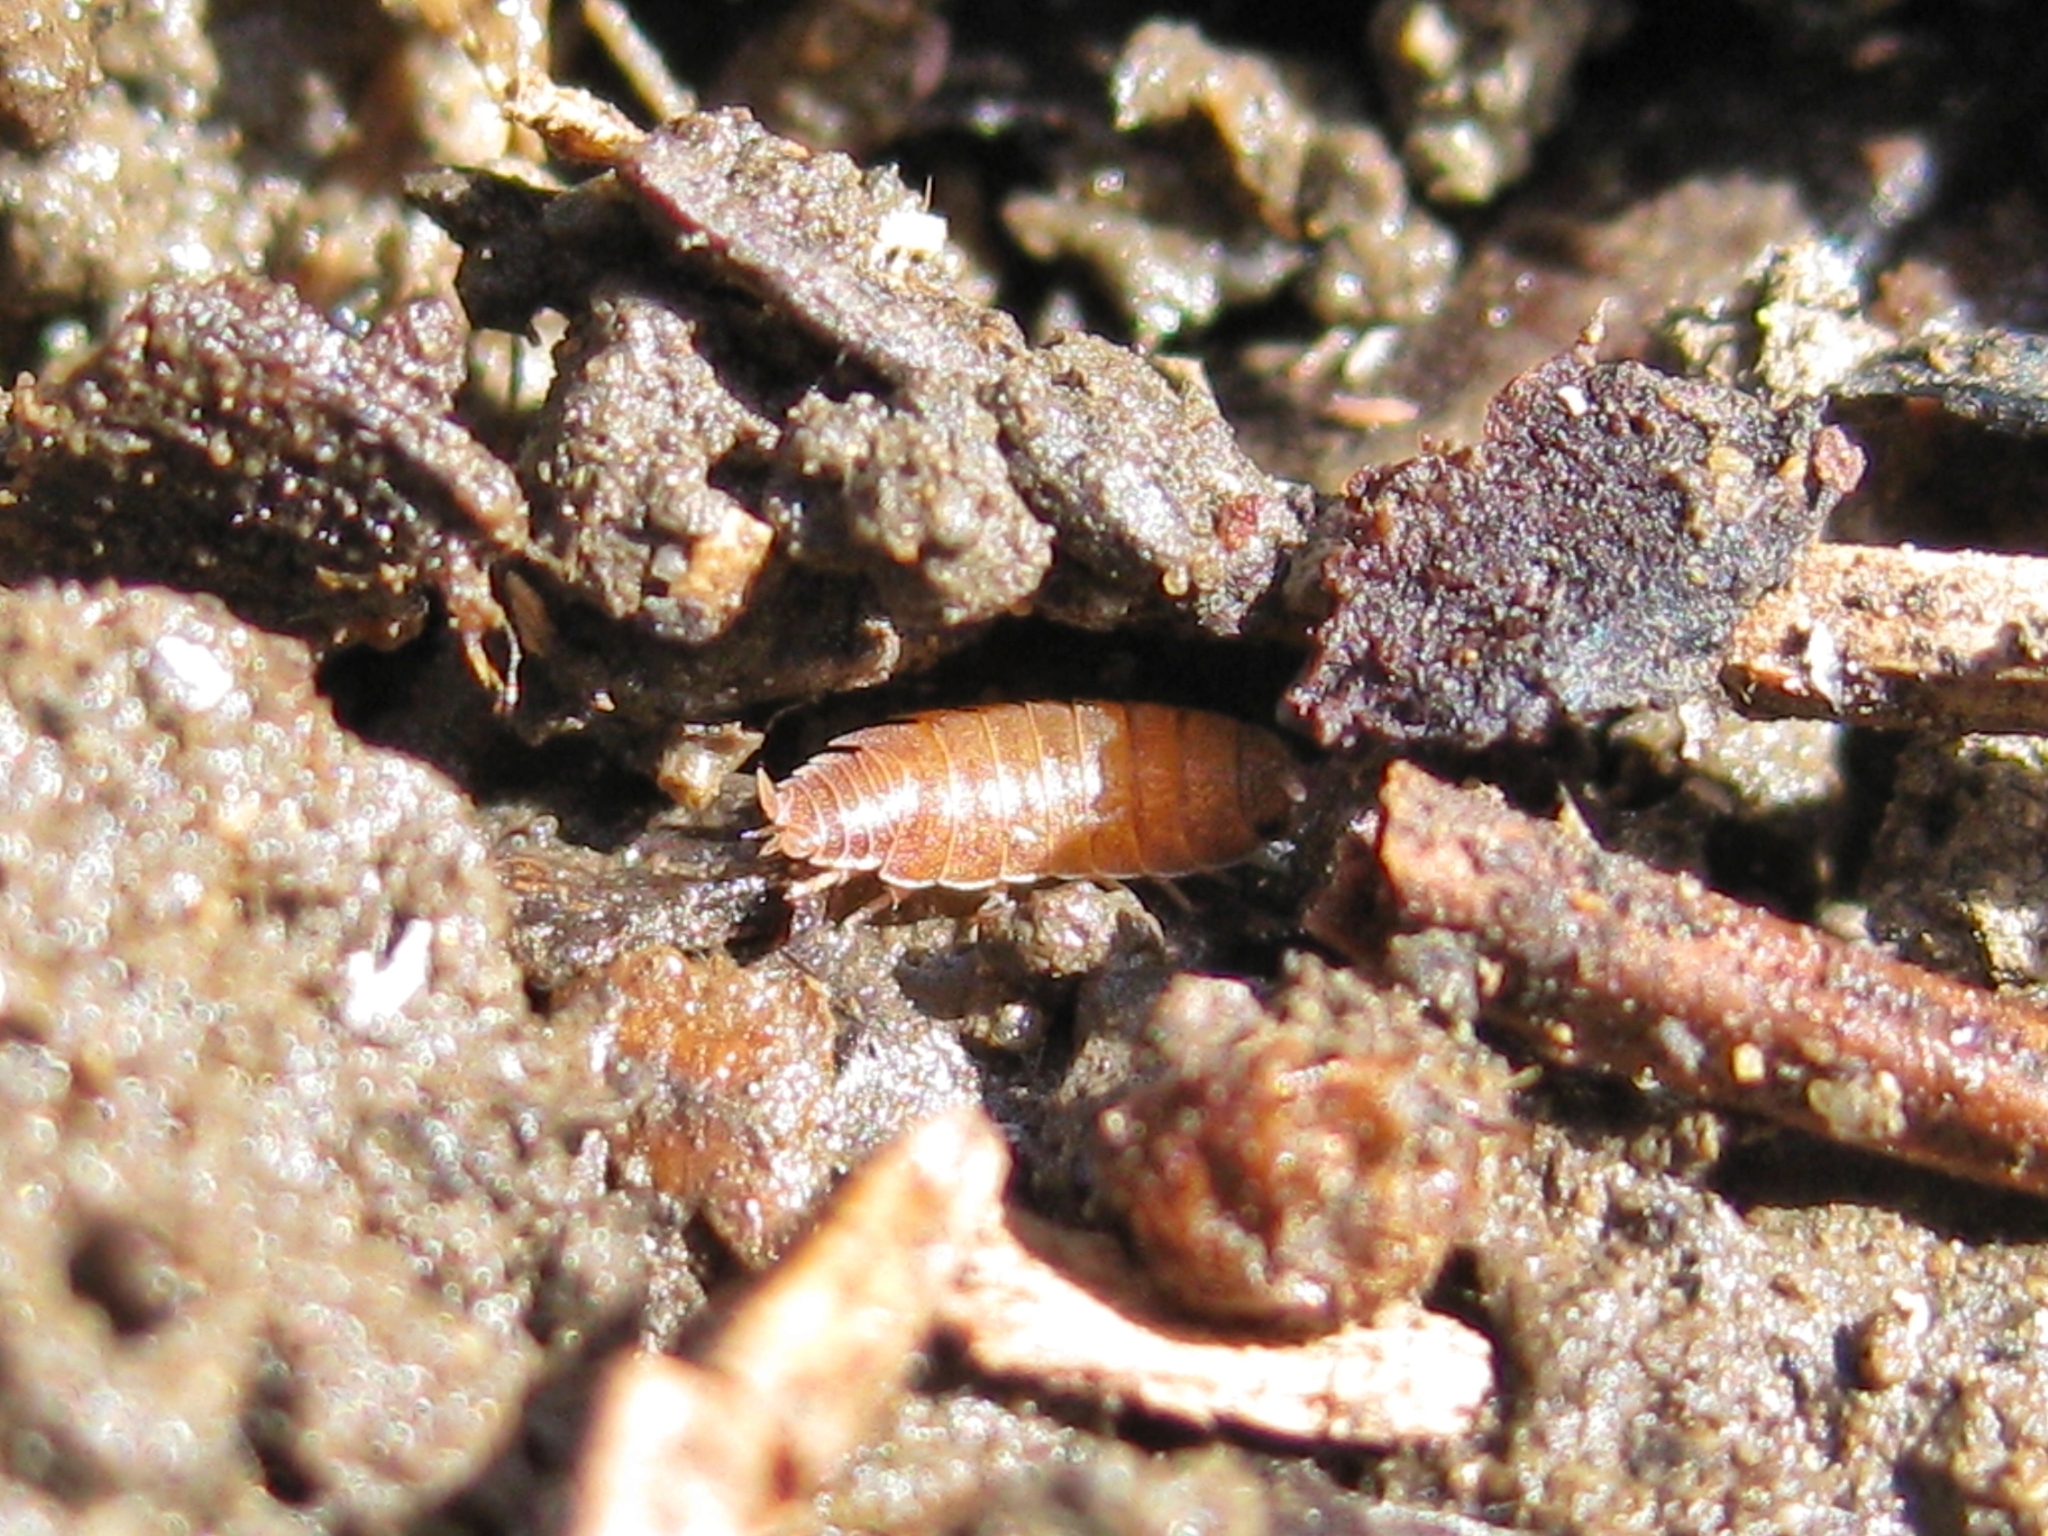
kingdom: Animalia
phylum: Arthropoda
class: Malacostraca
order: Isopoda
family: Porcellionidae
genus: Porcellionides
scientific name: Porcellionides
